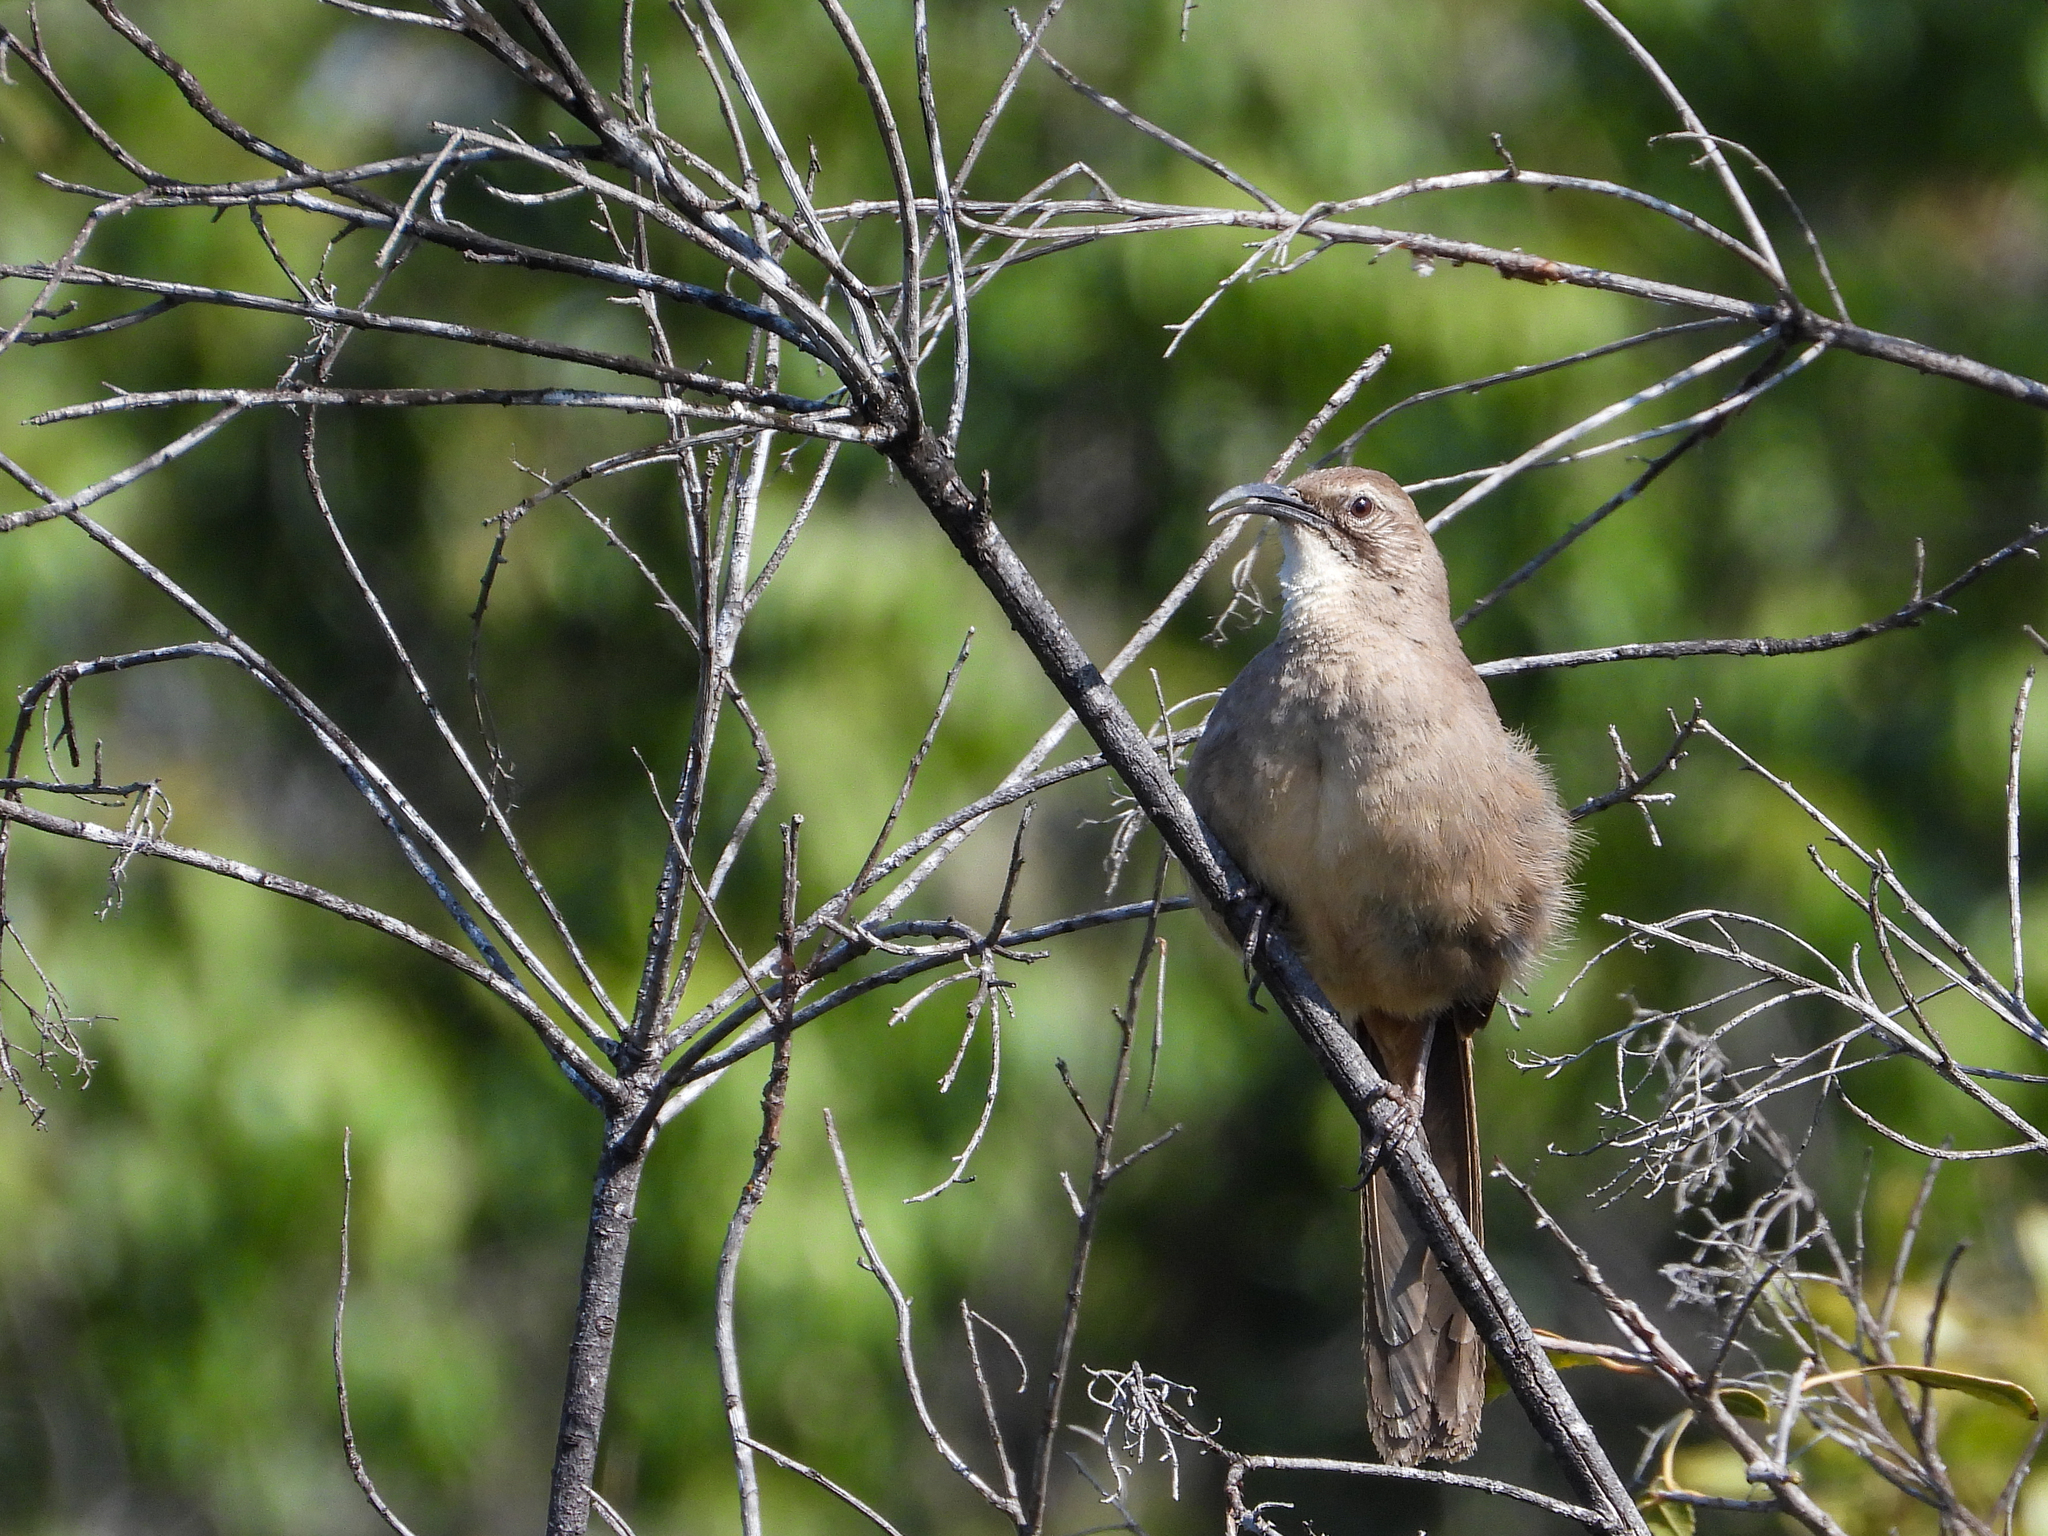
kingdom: Animalia
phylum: Chordata
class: Aves
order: Passeriformes
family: Mimidae
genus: Toxostoma
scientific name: Toxostoma redivivum
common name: California thrasher
